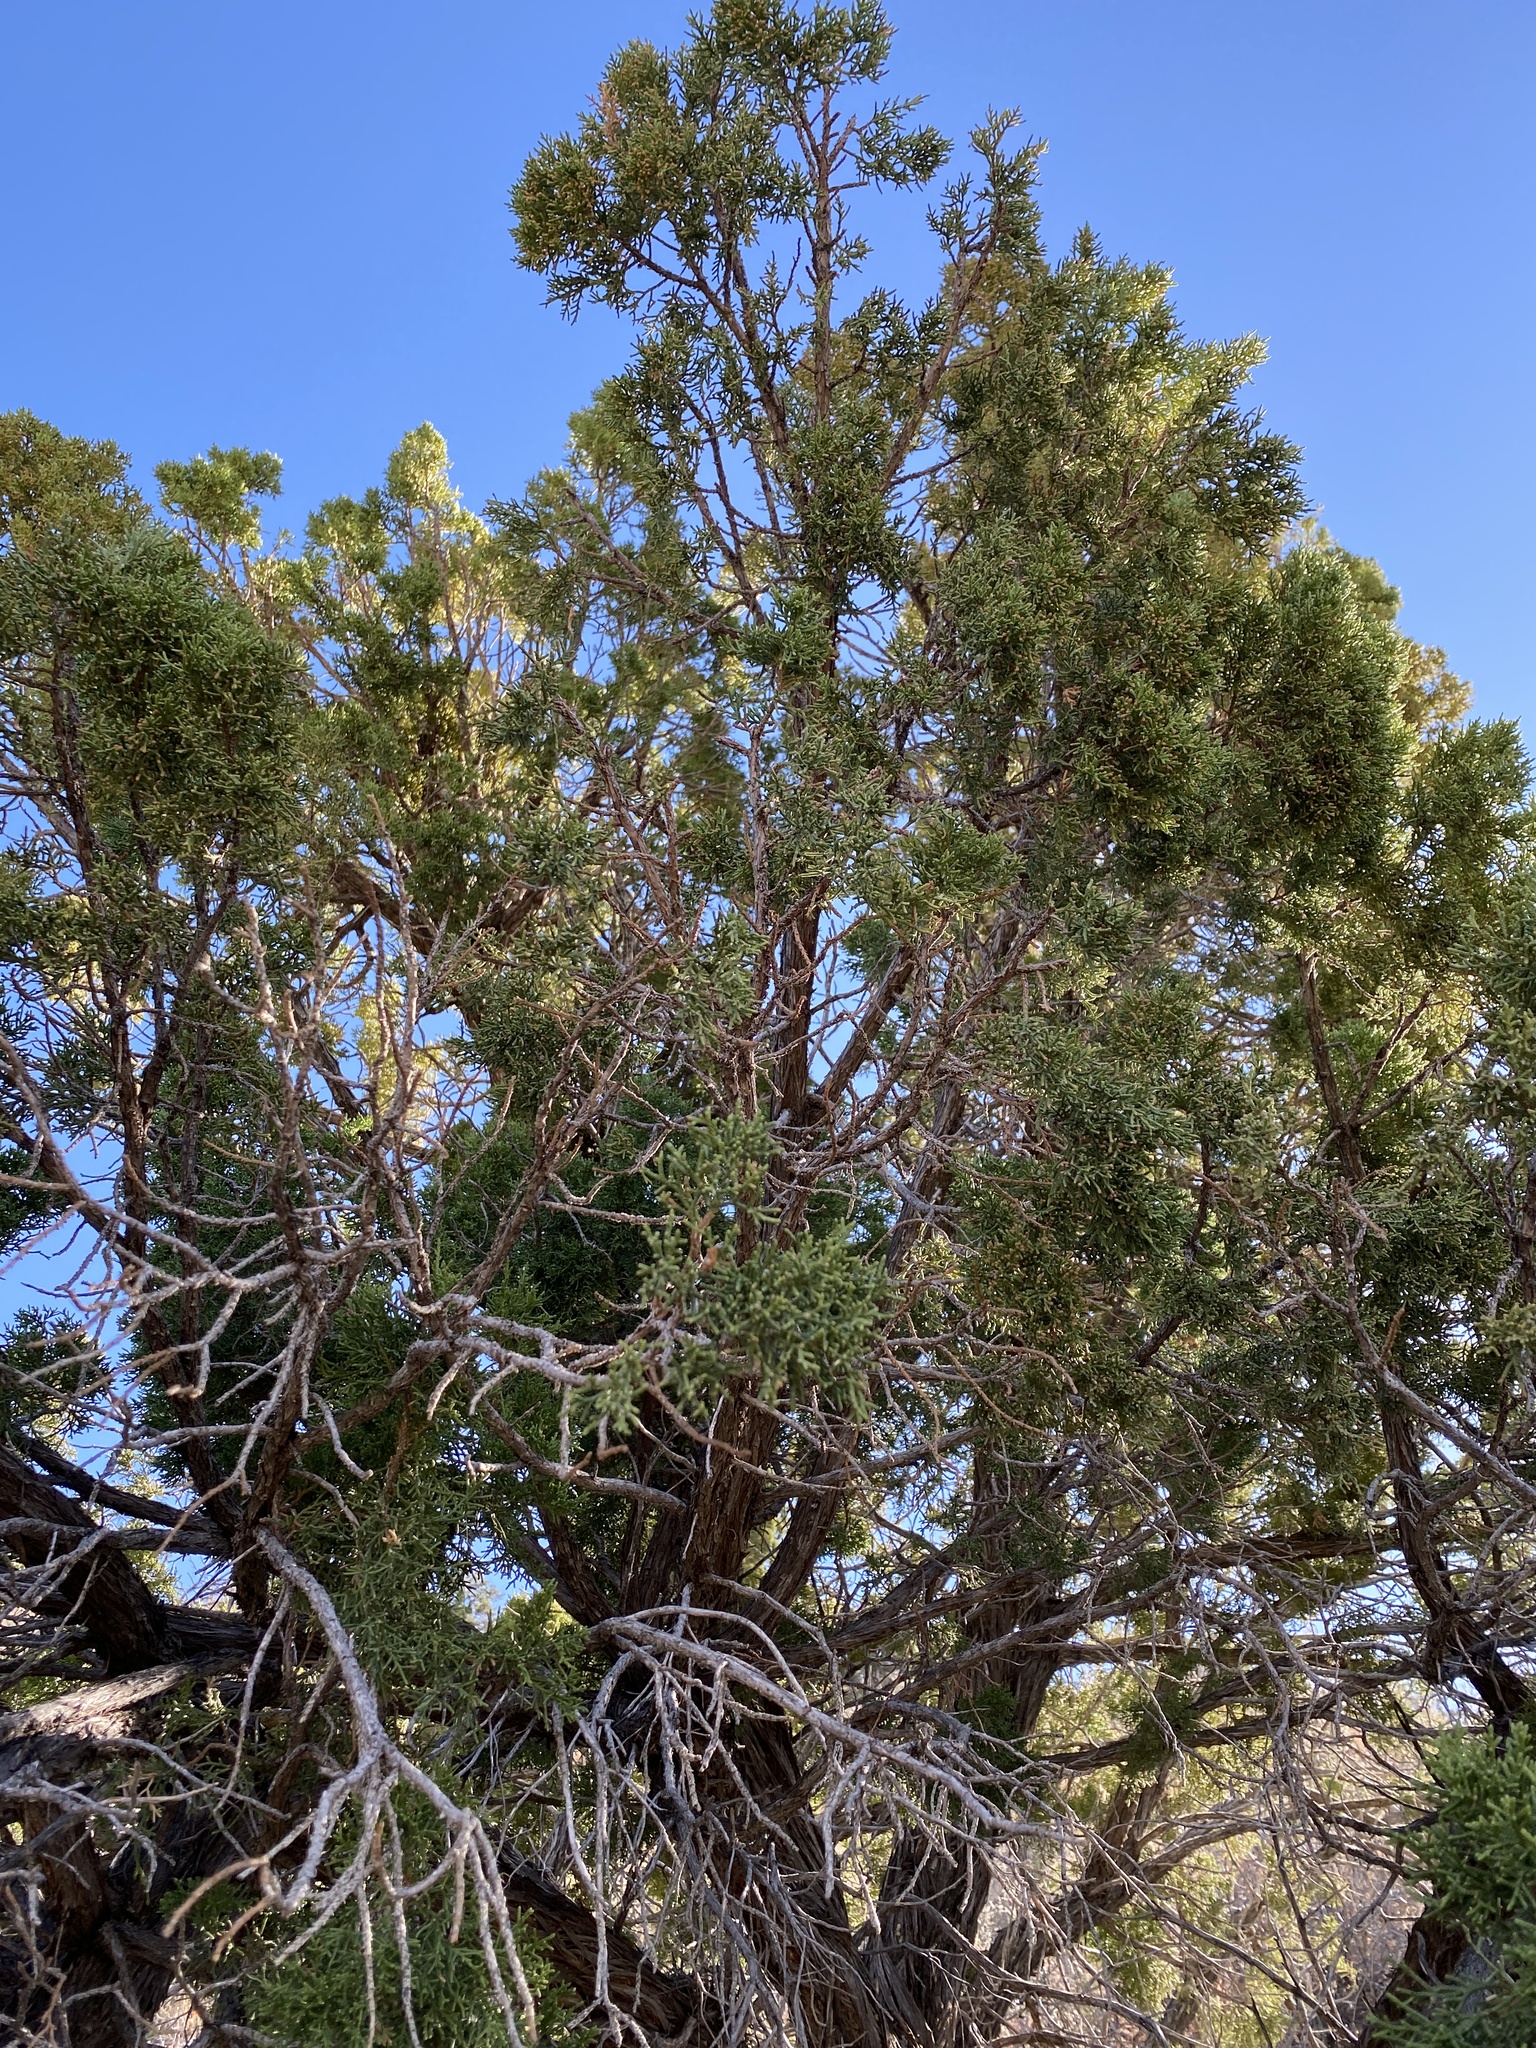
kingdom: Plantae
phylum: Tracheophyta
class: Pinopsida
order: Pinales
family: Cupressaceae
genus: Juniperus
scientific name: Juniperus monosperma
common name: One-seed juniper
